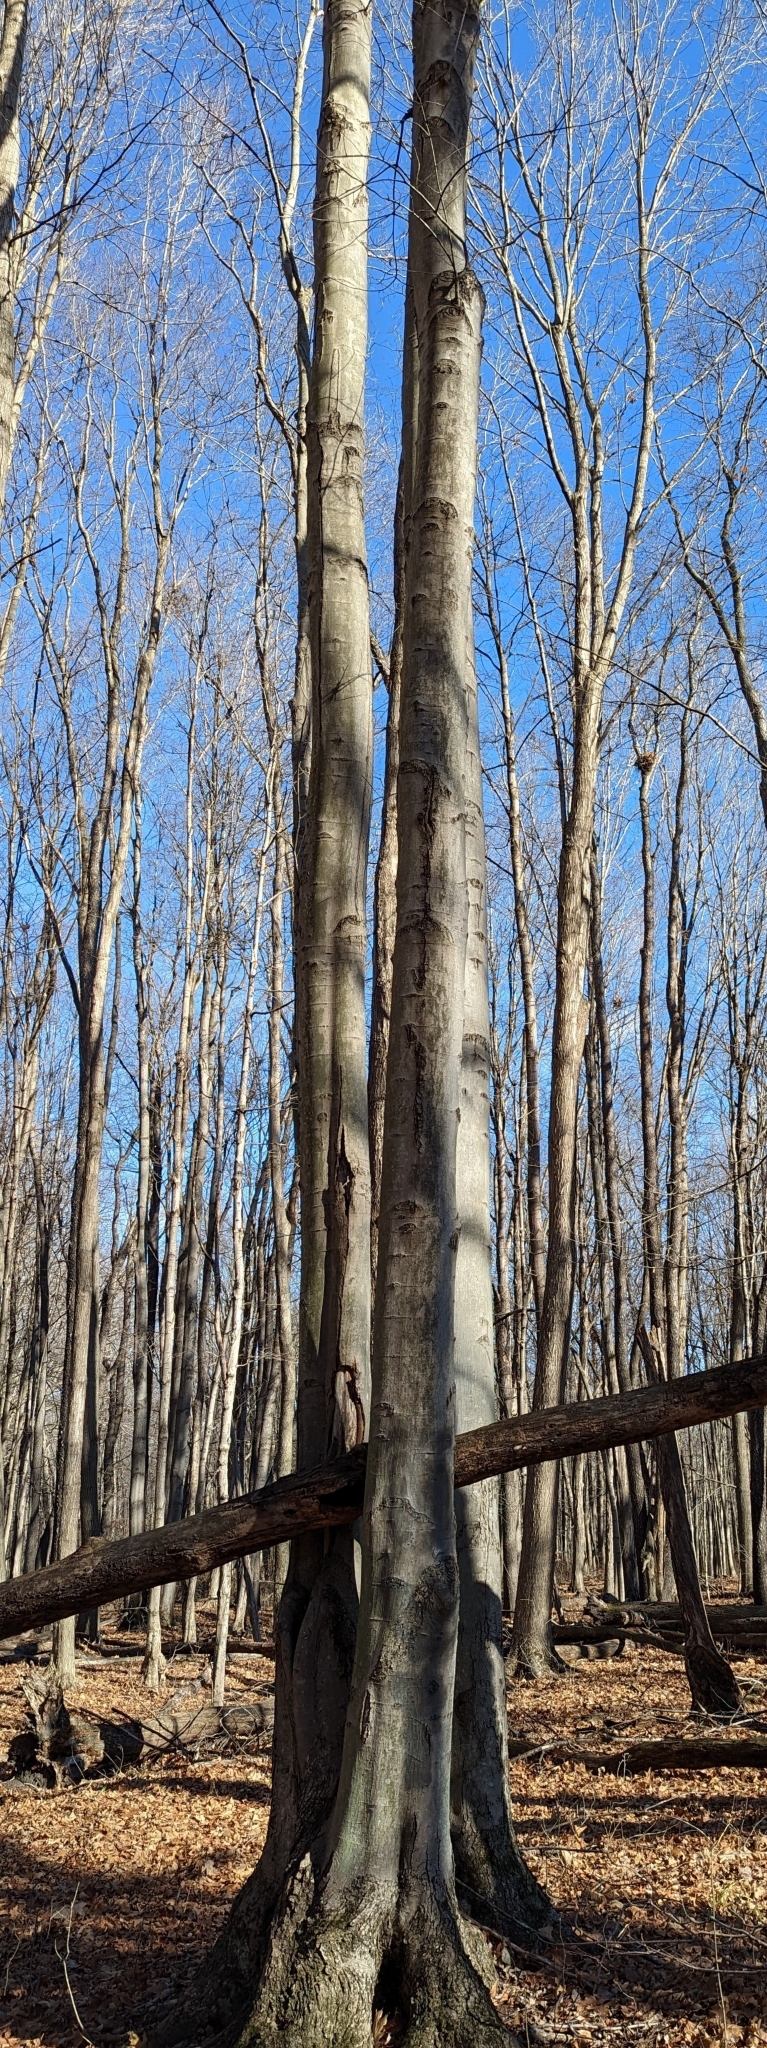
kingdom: Plantae
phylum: Tracheophyta
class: Magnoliopsida
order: Fagales
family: Fagaceae
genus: Fagus
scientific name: Fagus grandifolia
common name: American beech
